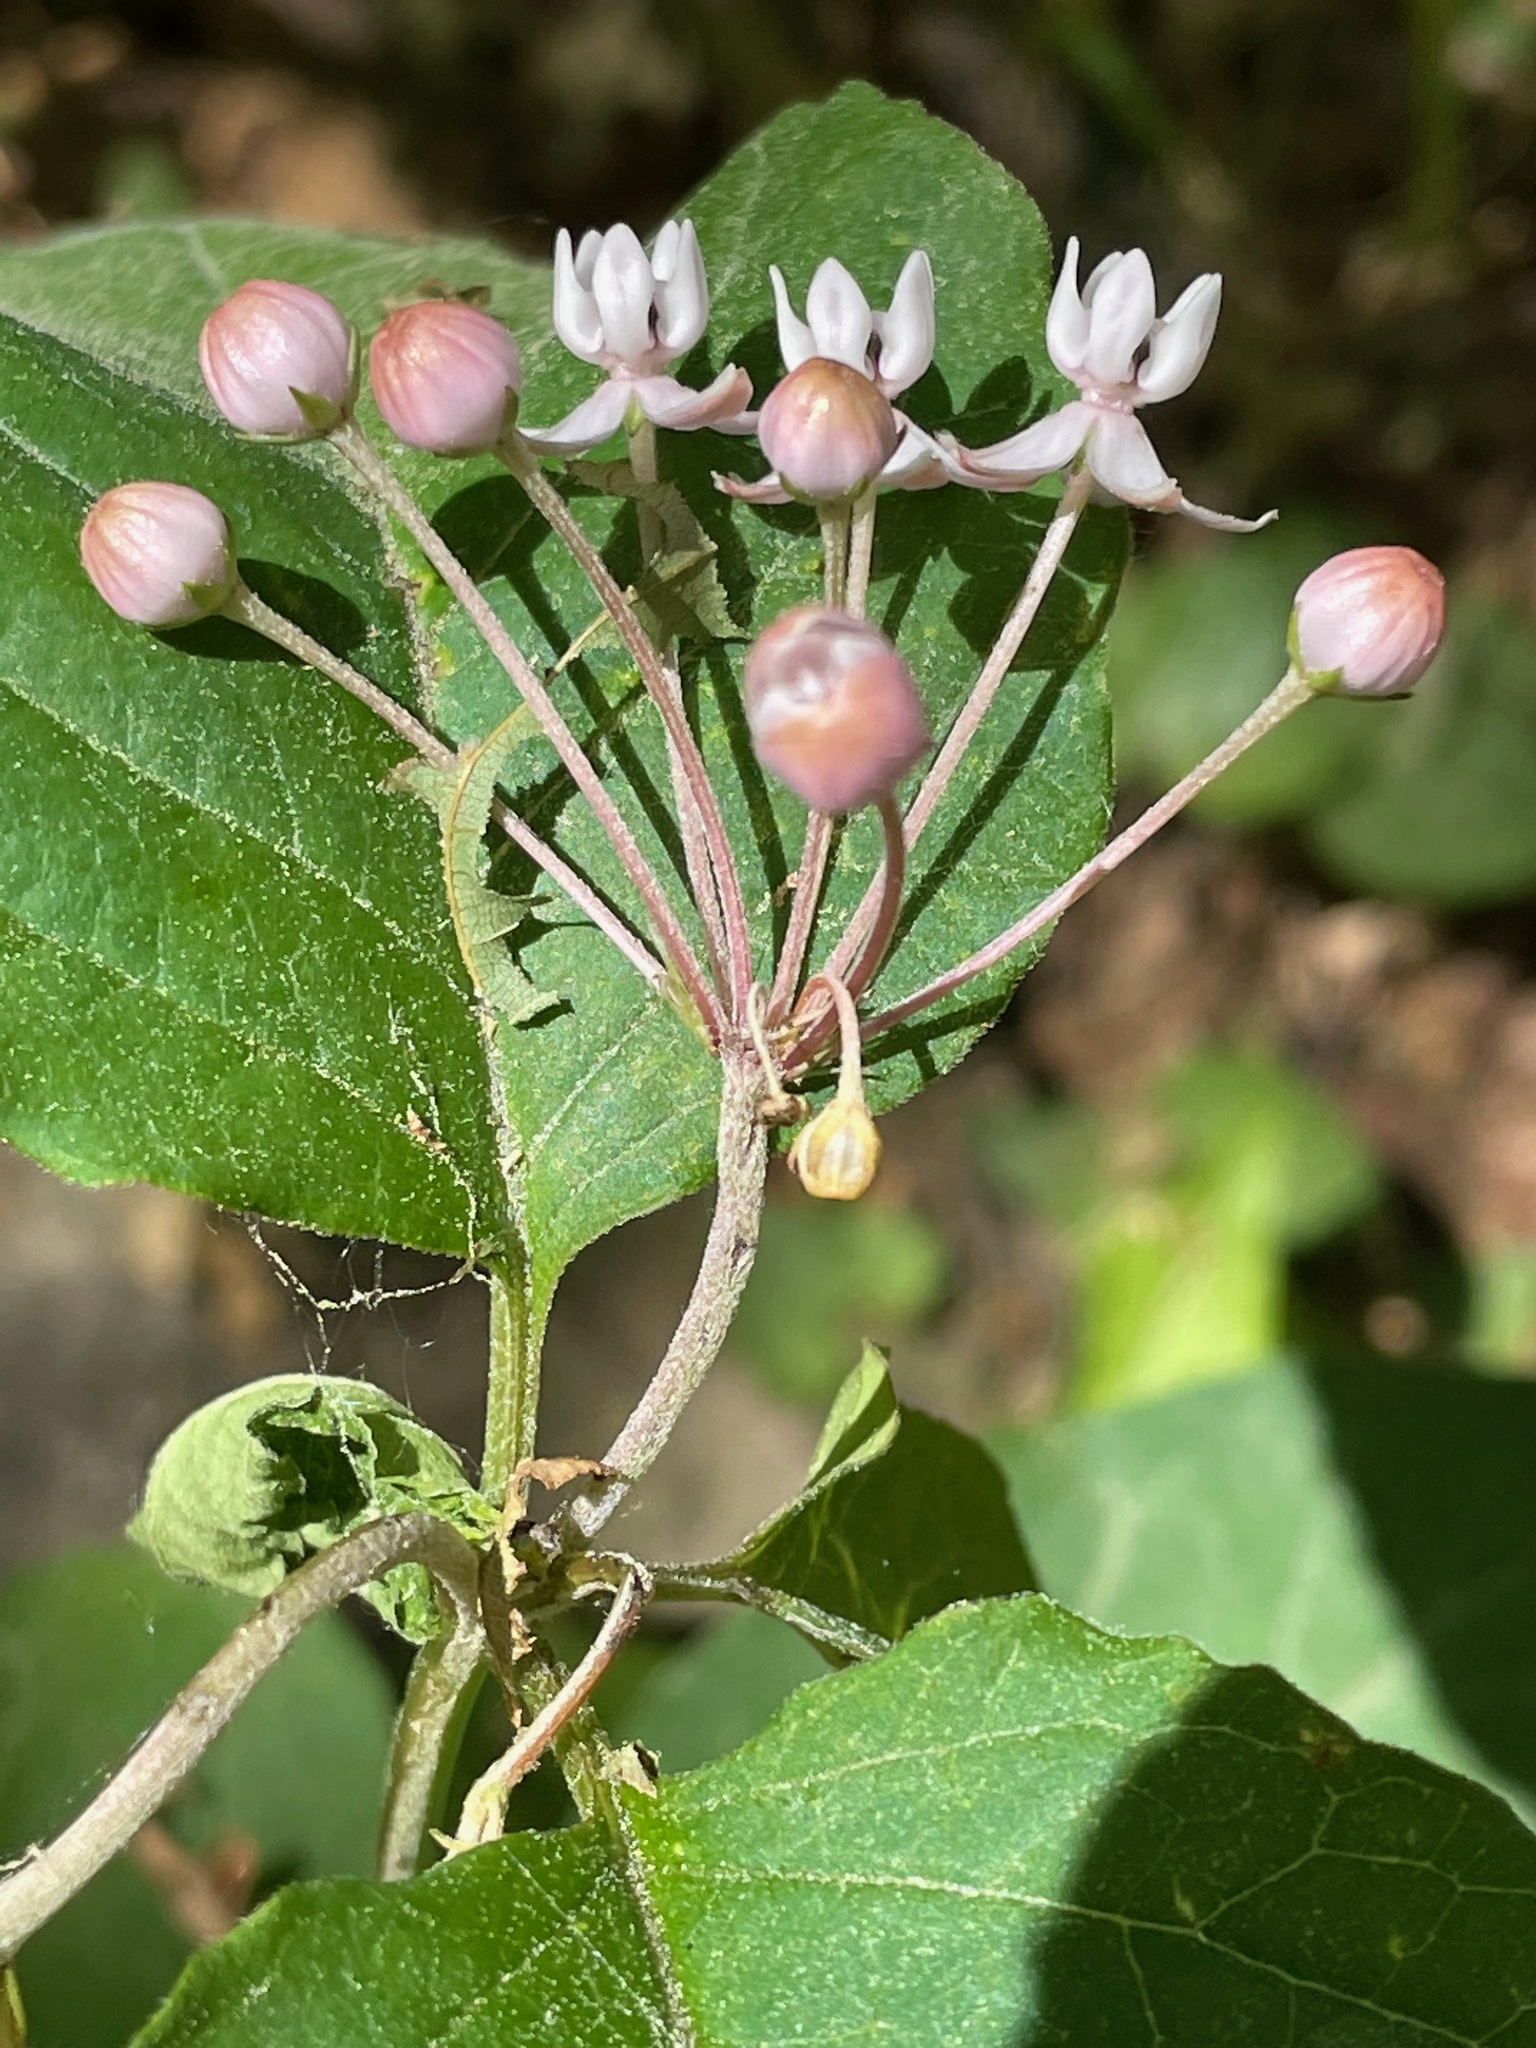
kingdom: Plantae
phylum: Tracheophyta
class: Magnoliopsida
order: Gentianales
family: Apocynaceae
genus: Asclepias
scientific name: Asclepias quadrifolia
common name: Whorled milkweed
